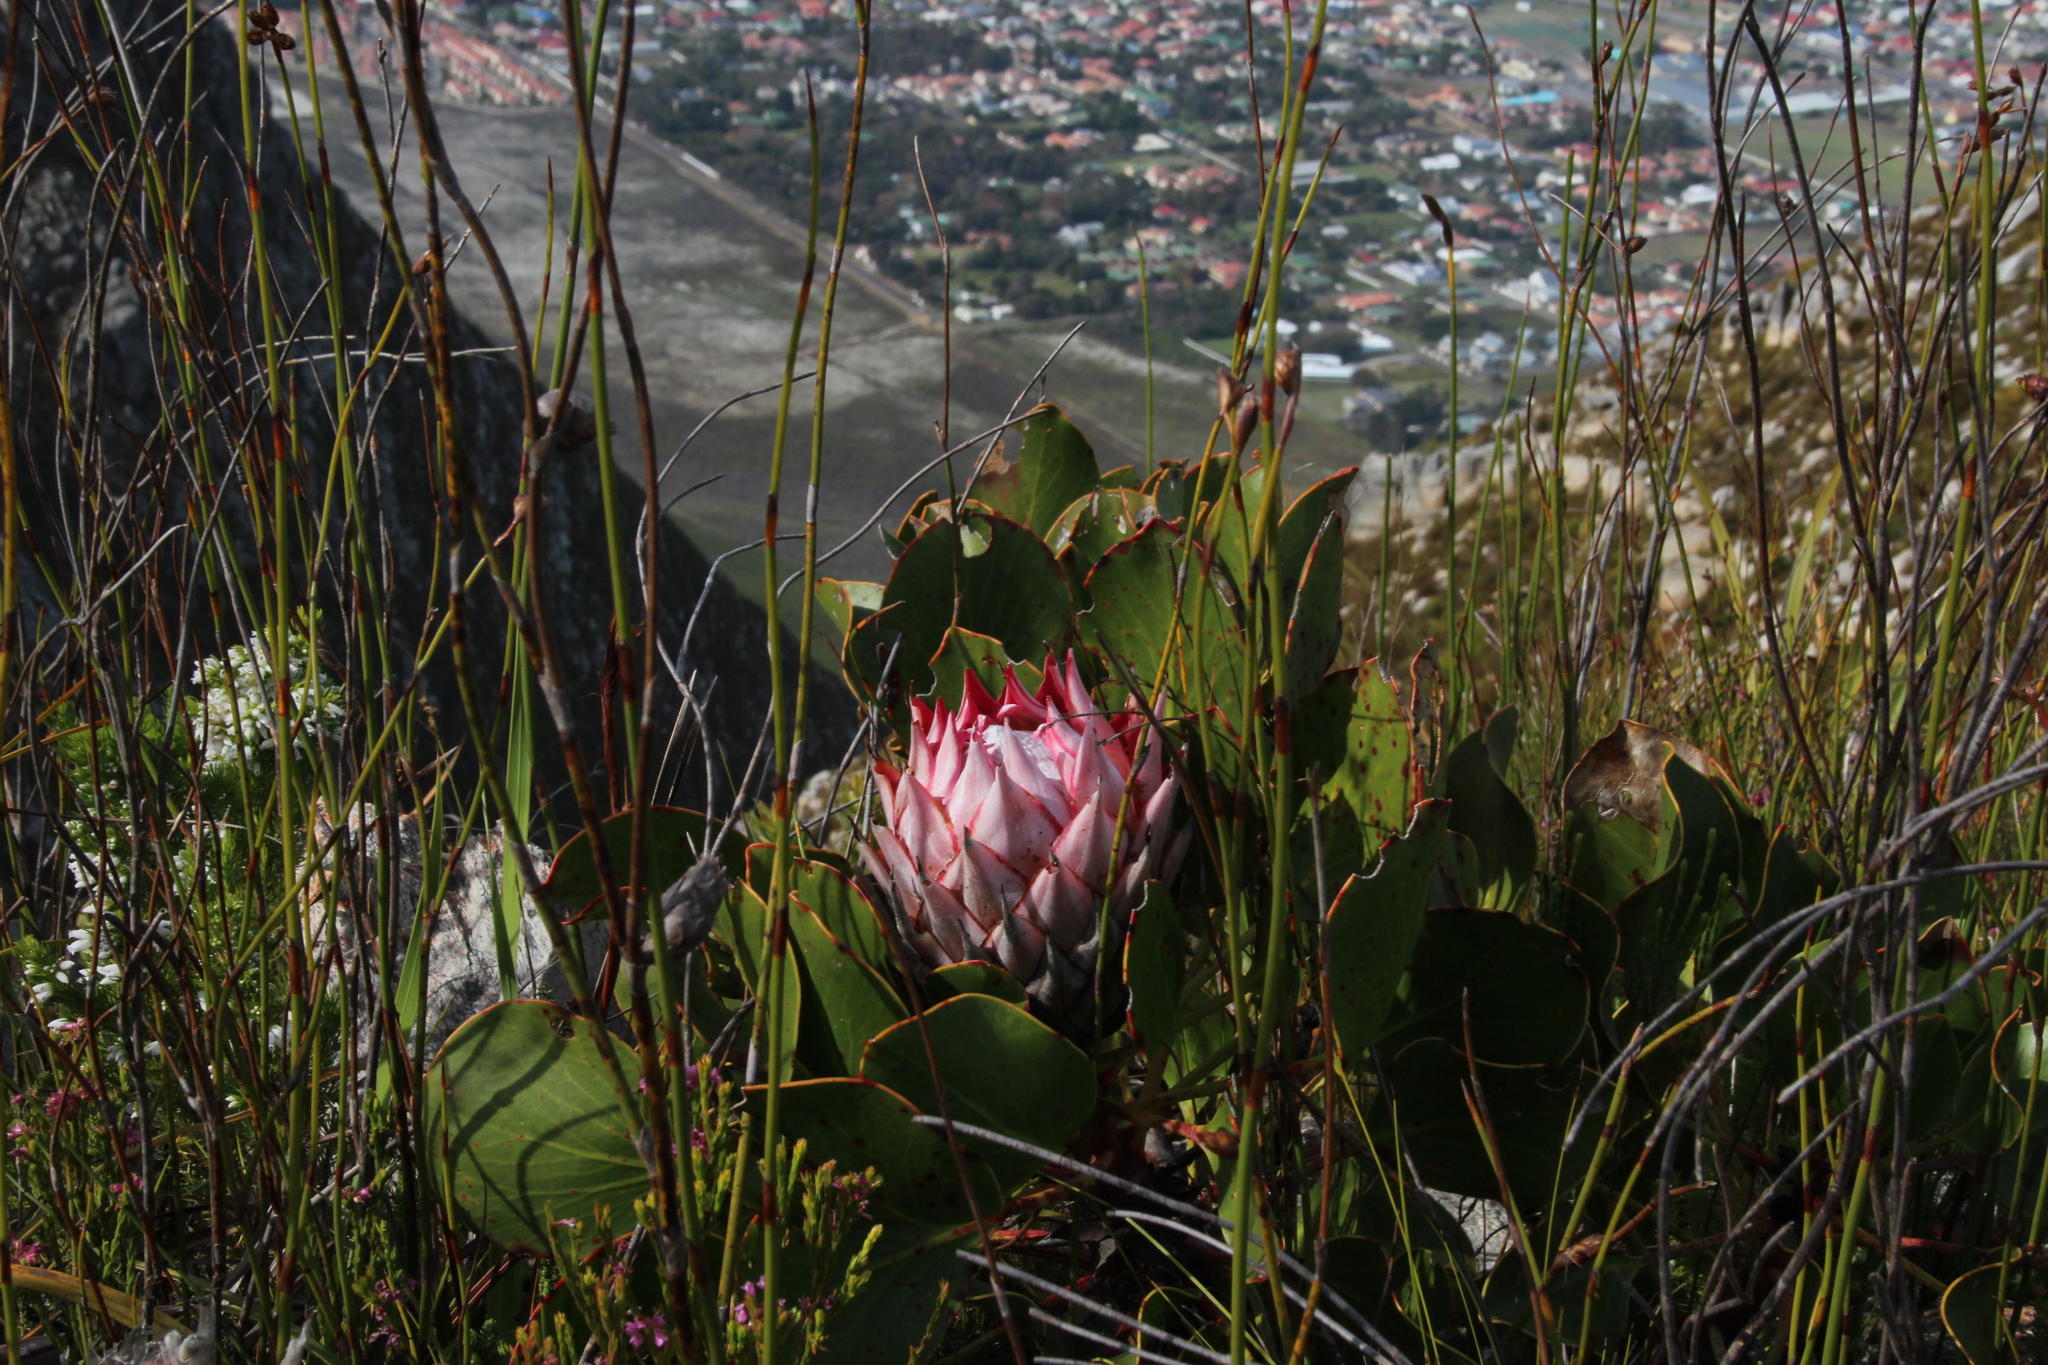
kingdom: Plantae
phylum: Tracheophyta
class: Magnoliopsida
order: Proteales
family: Proteaceae
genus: Protea
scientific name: Protea cynaroides
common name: King protea
